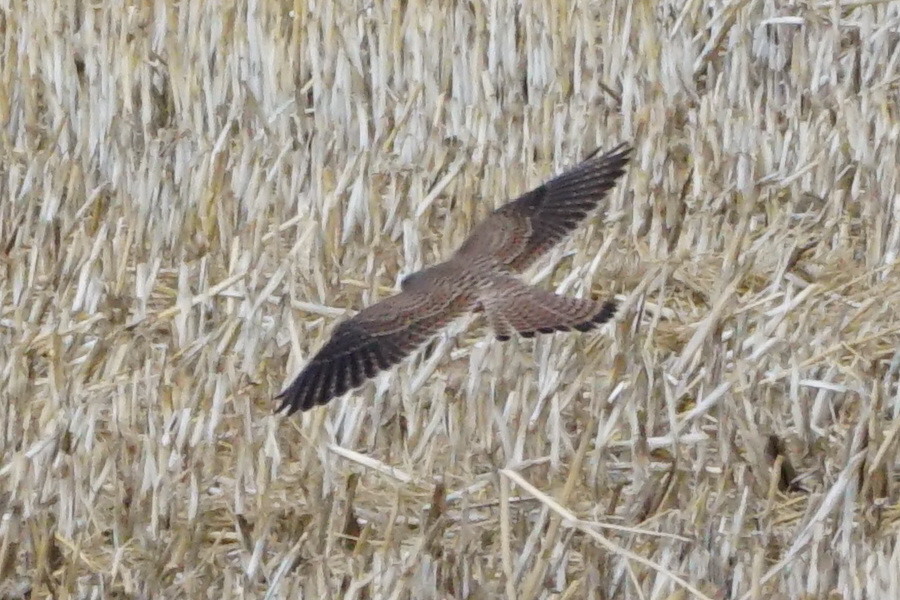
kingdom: Animalia
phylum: Chordata
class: Aves
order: Falconiformes
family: Falconidae
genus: Falco
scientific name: Falco tinnunculus
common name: Common kestrel
